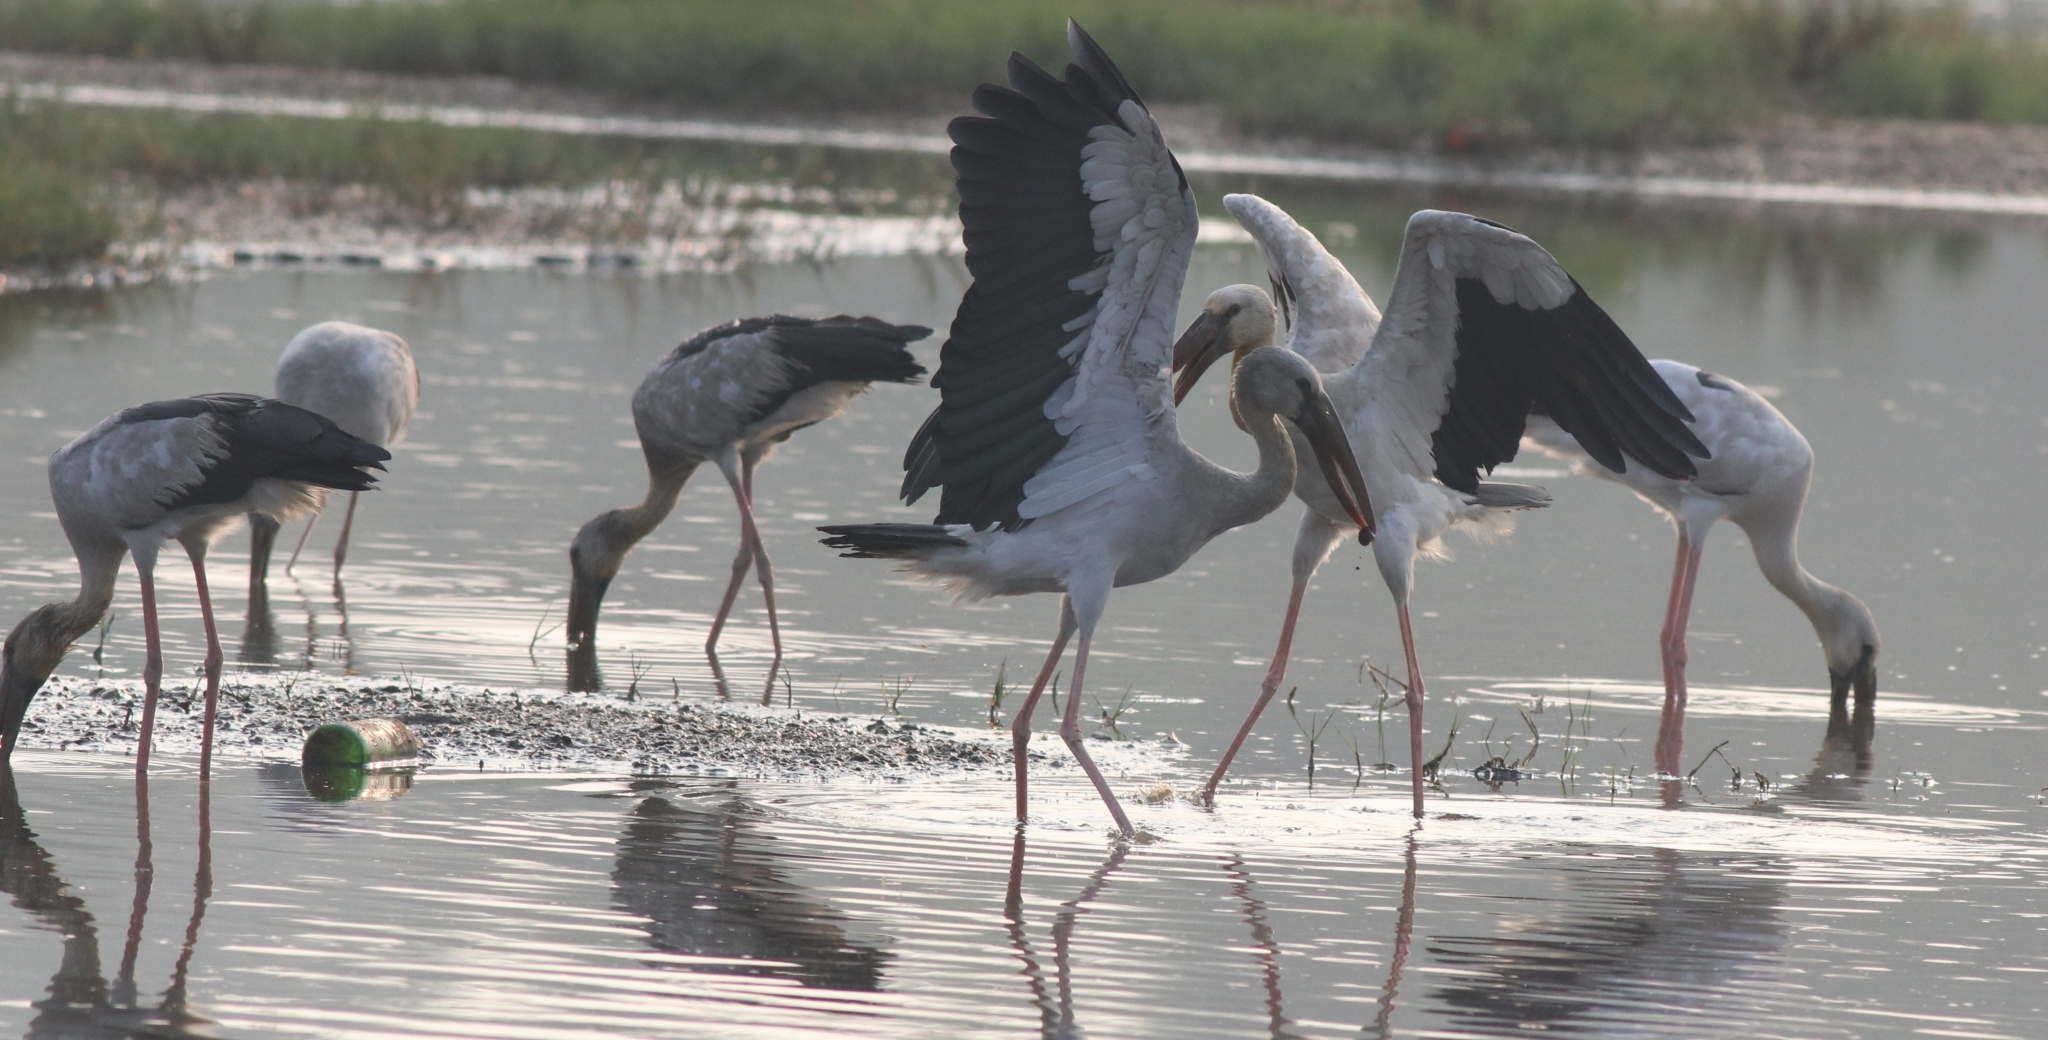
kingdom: Animalia
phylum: Chordata
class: Aves
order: Ciconiiformes
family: Ciconiidae
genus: Anastomus
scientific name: Anastomus oscitans
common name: Asian openbill
